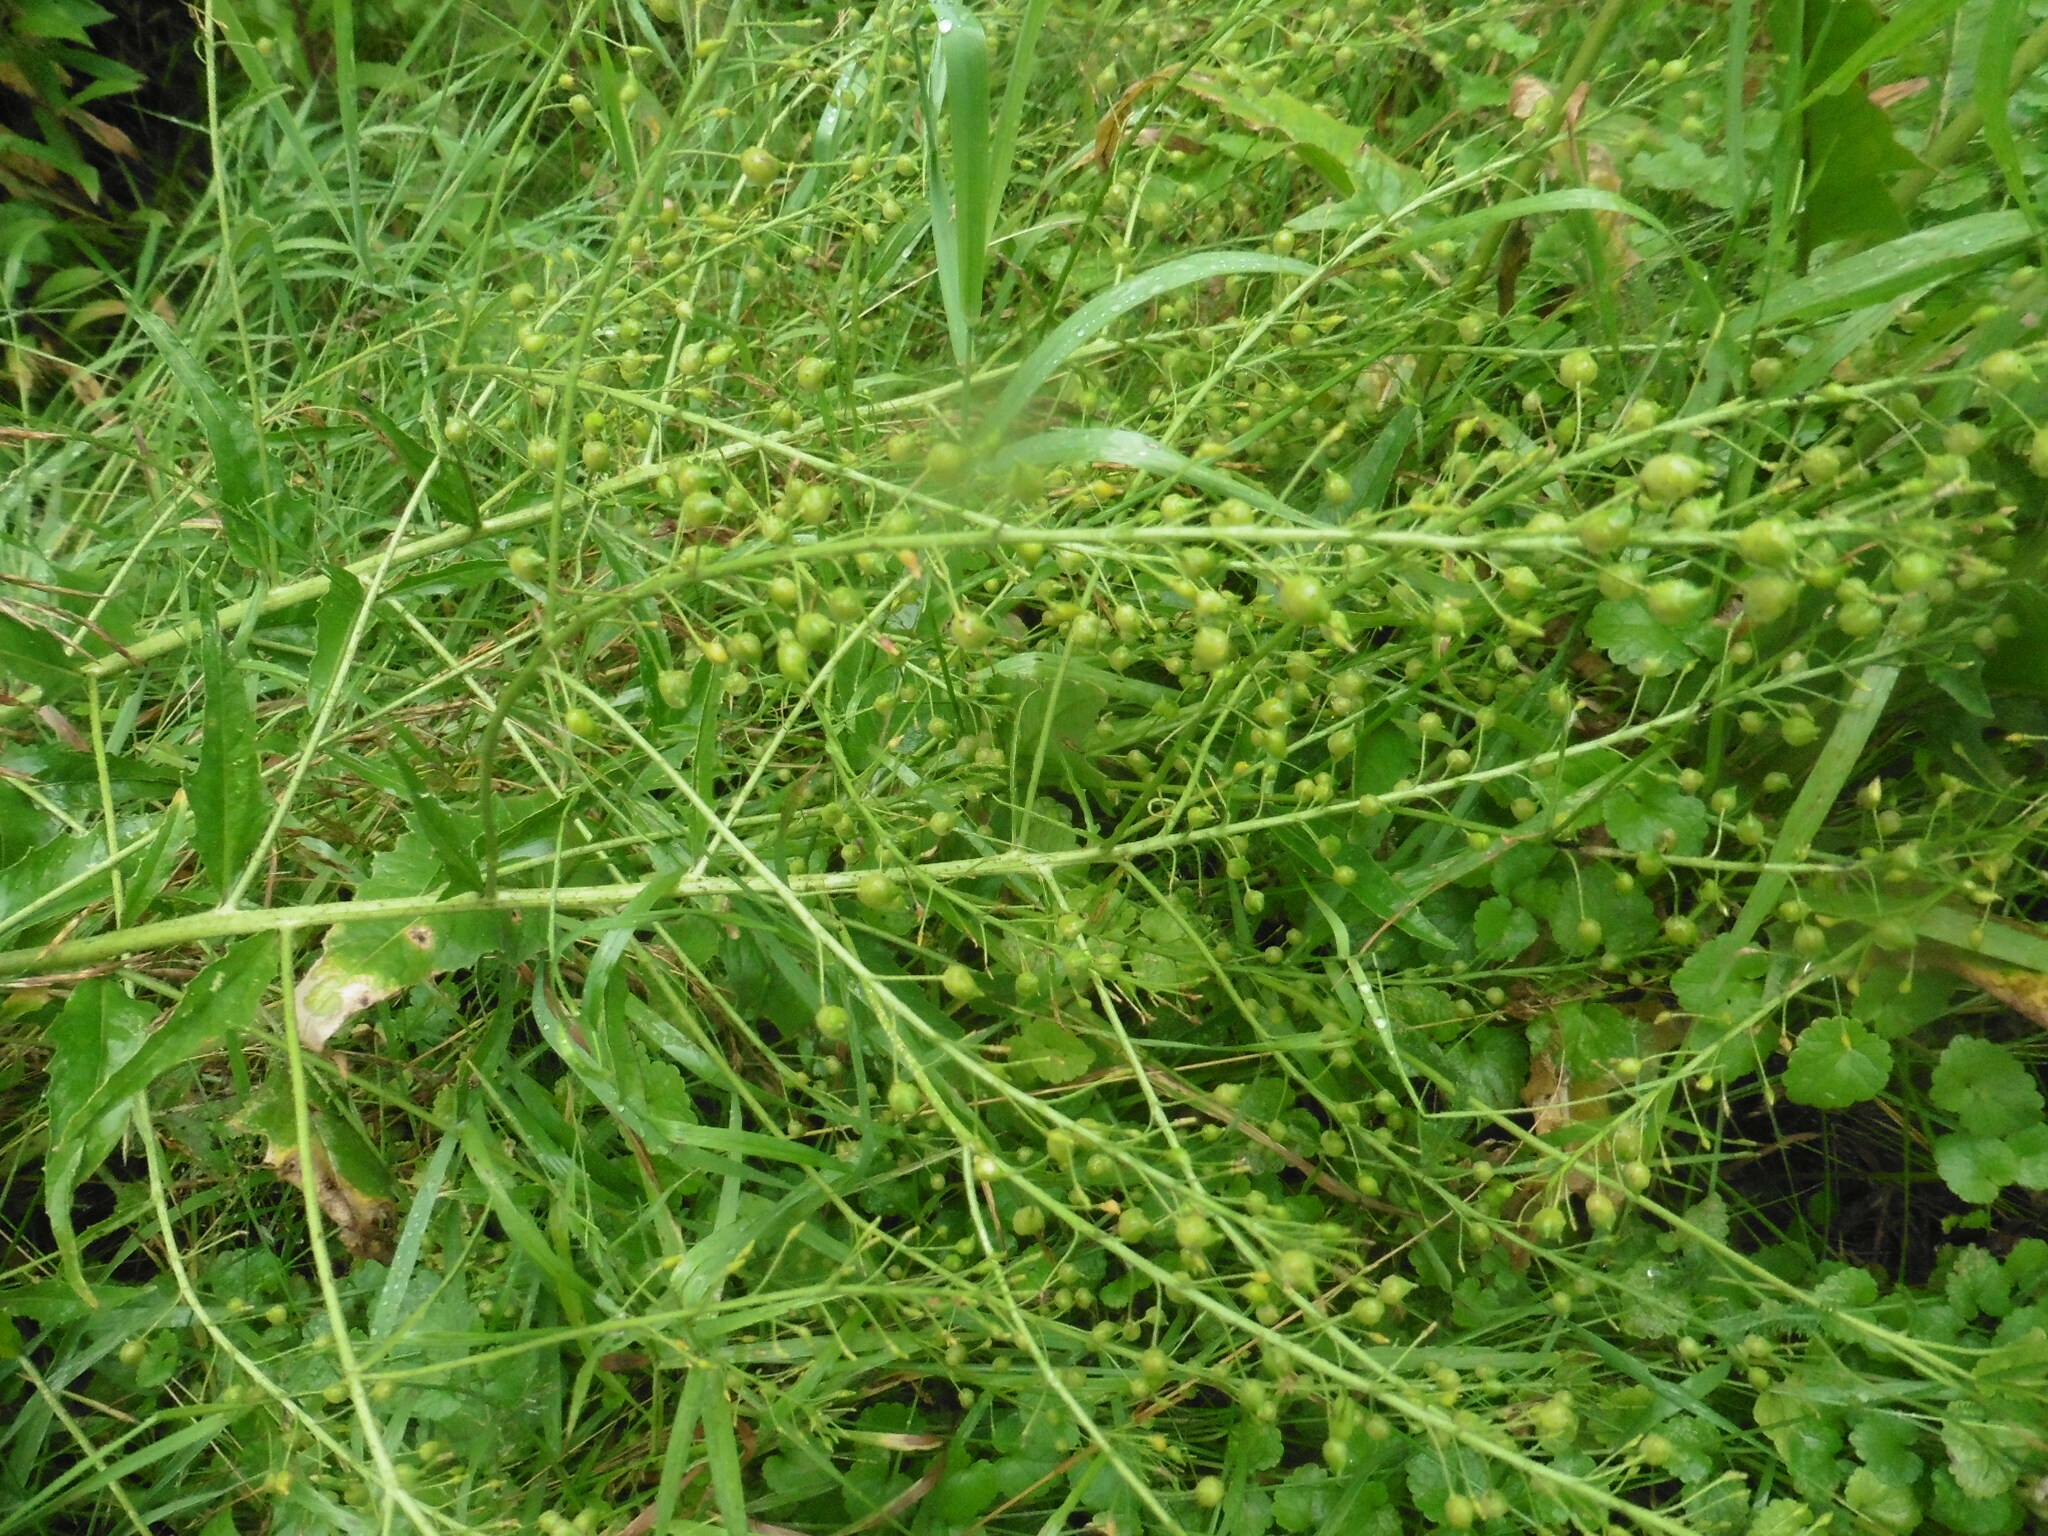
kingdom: Plantae
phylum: Tracheophyta
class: Magnoliopsida
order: Brassicales
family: Brassicaceae
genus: Bunias
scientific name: Bunias orientalis
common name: Warty-cabbage
